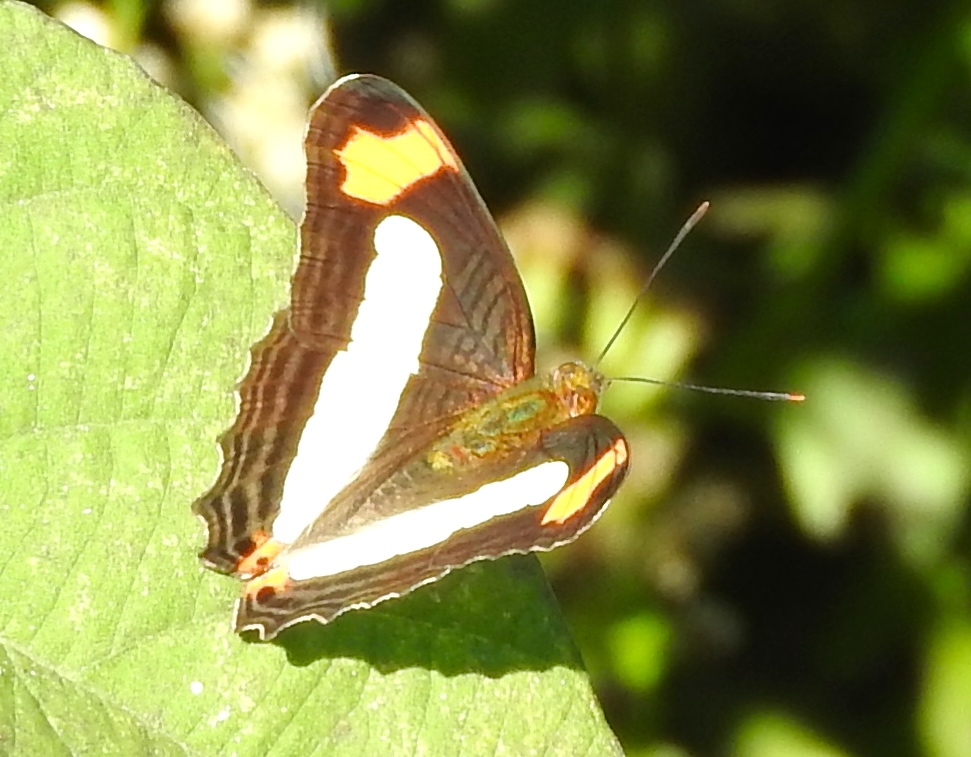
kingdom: Animalia
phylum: Arthropoda
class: Insecta
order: Lepidoptera
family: Nymphalidae
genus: Limenitis
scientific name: Limenitis iphiclus
